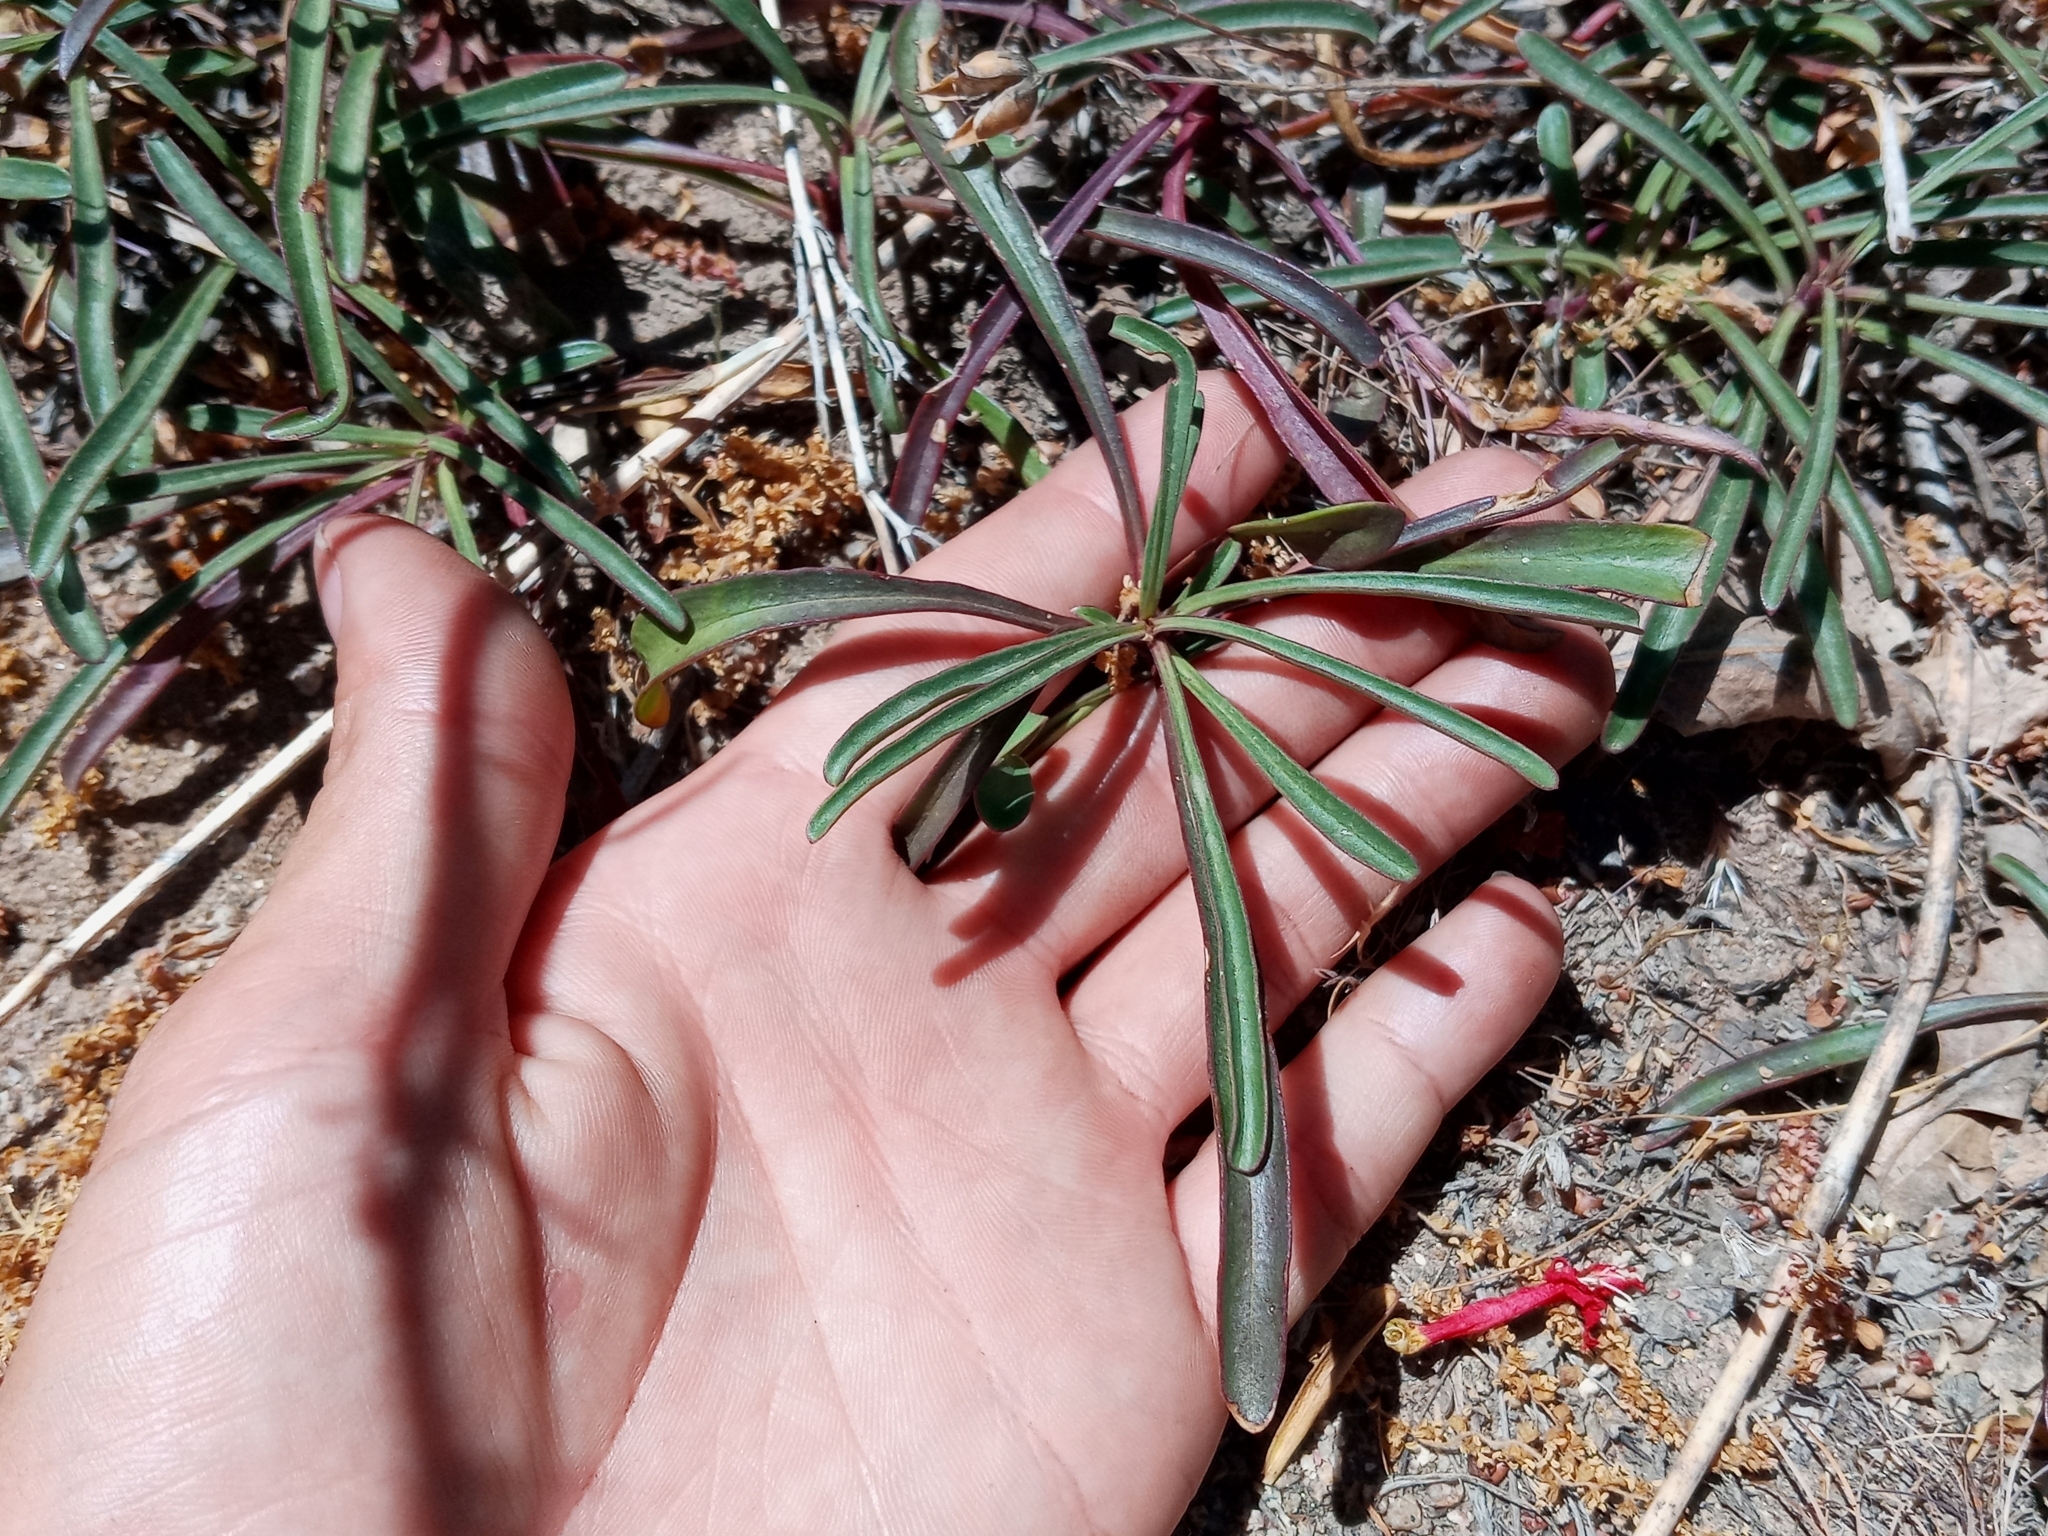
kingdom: Plantae
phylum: Tracheophyta
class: Magnoliopsida
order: Lamiales
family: Plantaginaceae
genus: Penstemon
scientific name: Penstemon labrosus
